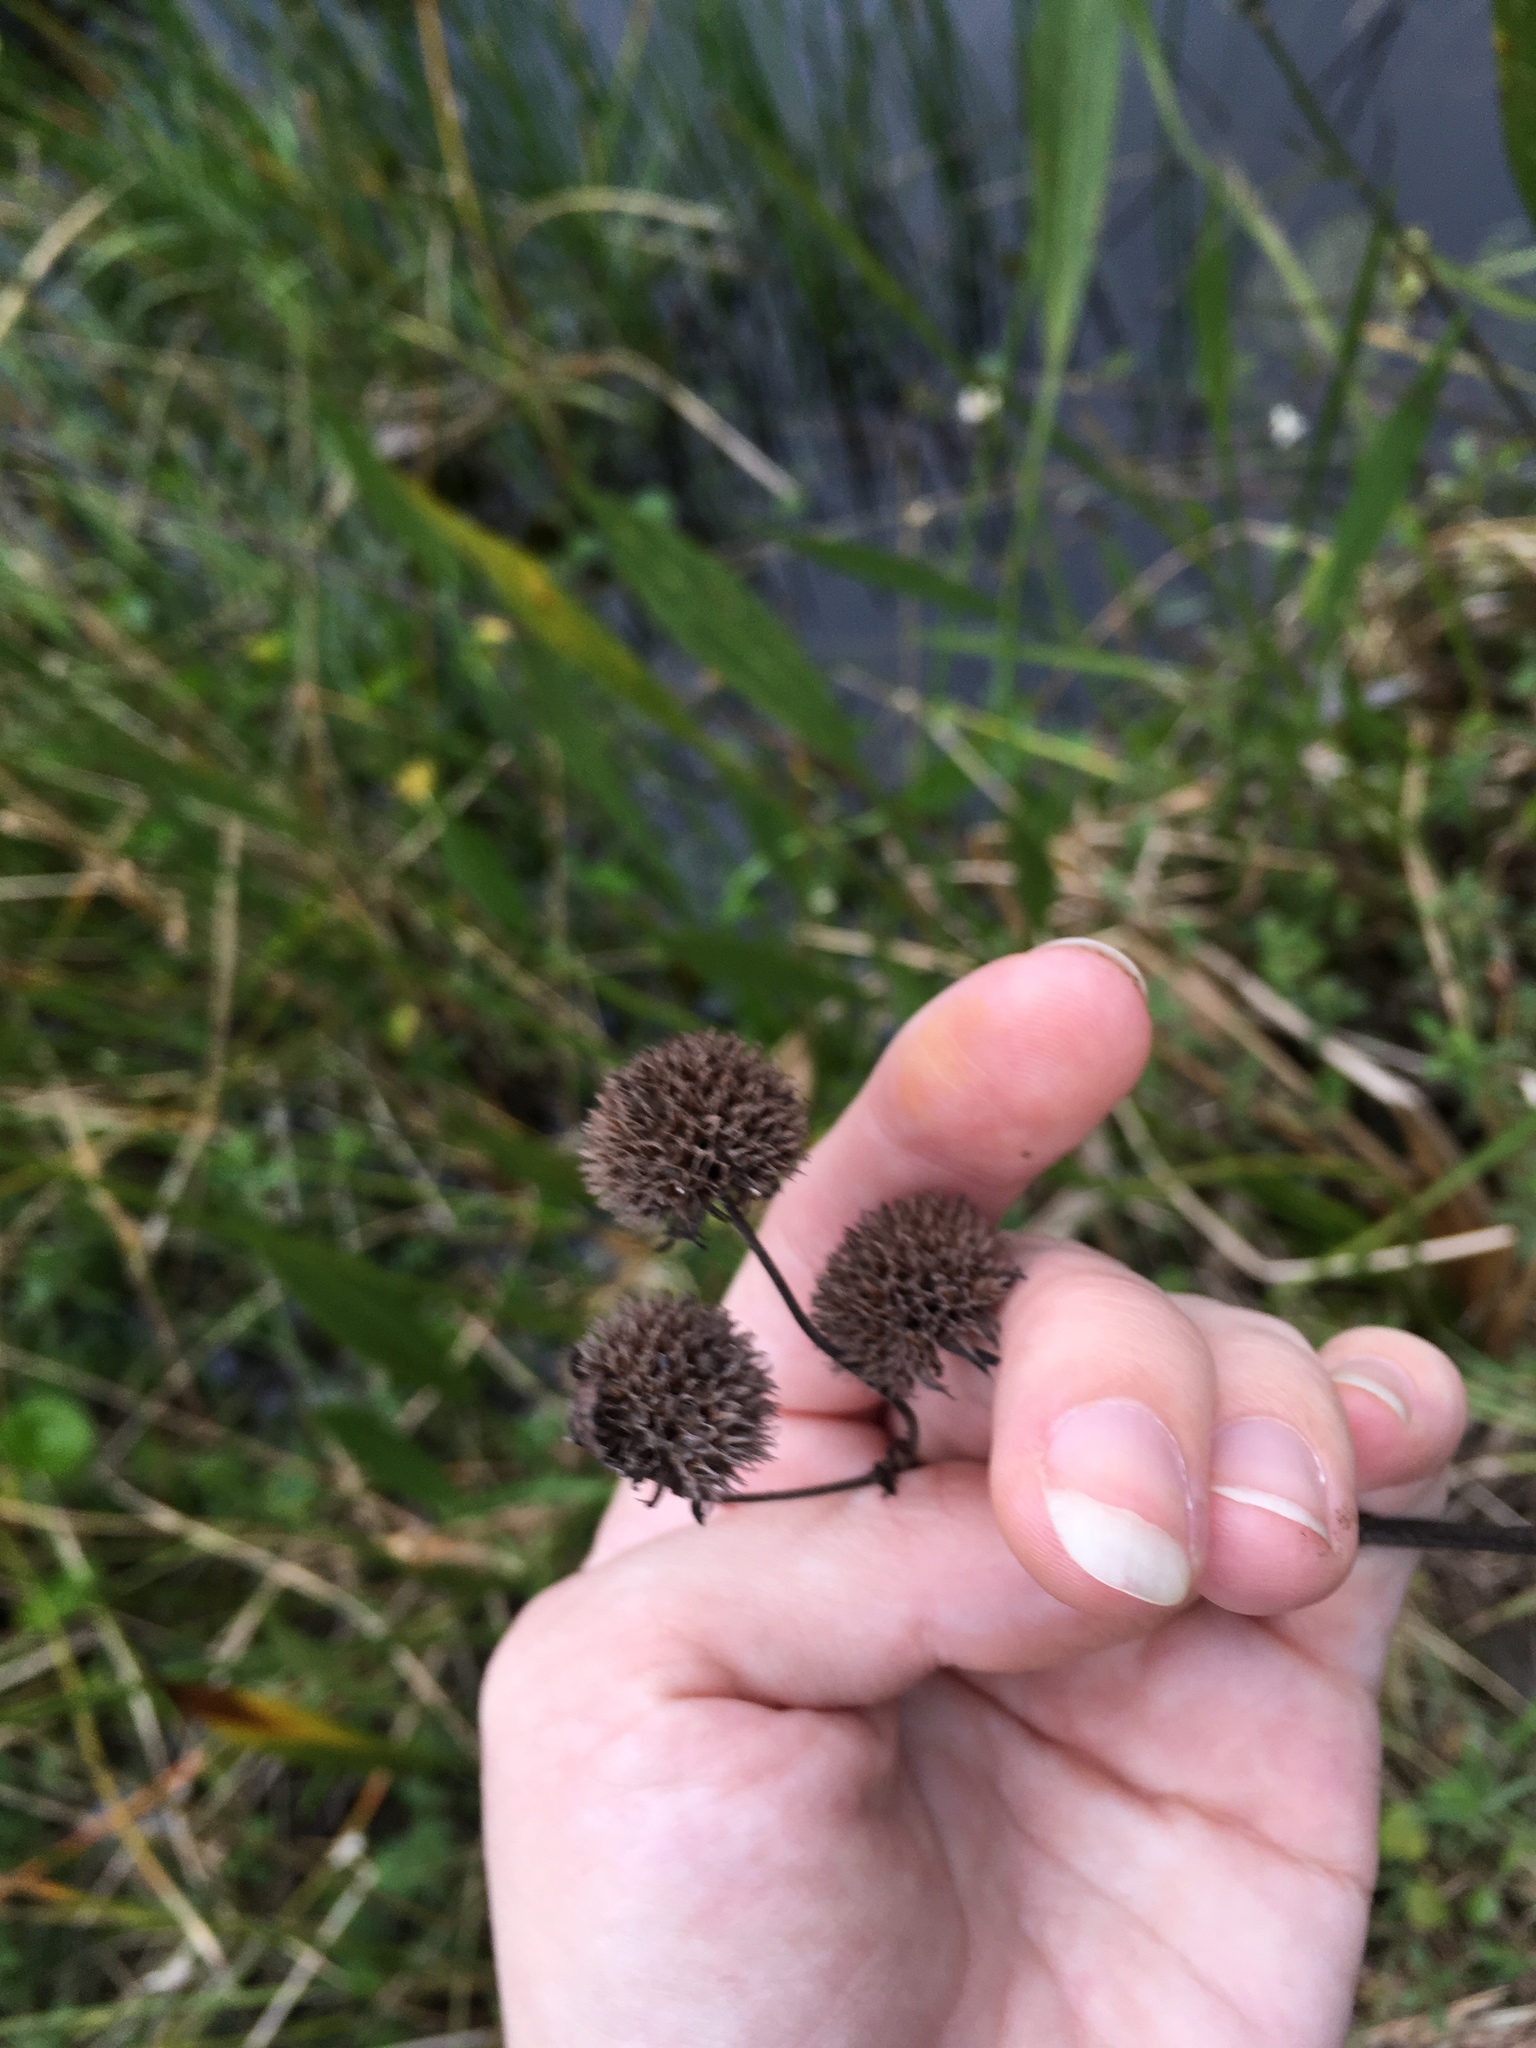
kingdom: Plantae
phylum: Tracheophyta
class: Magnoliopsida
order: Lamiales
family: Lamiaceae
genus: Hyptis
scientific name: Hyptis alata
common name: Cluster bush-mint
